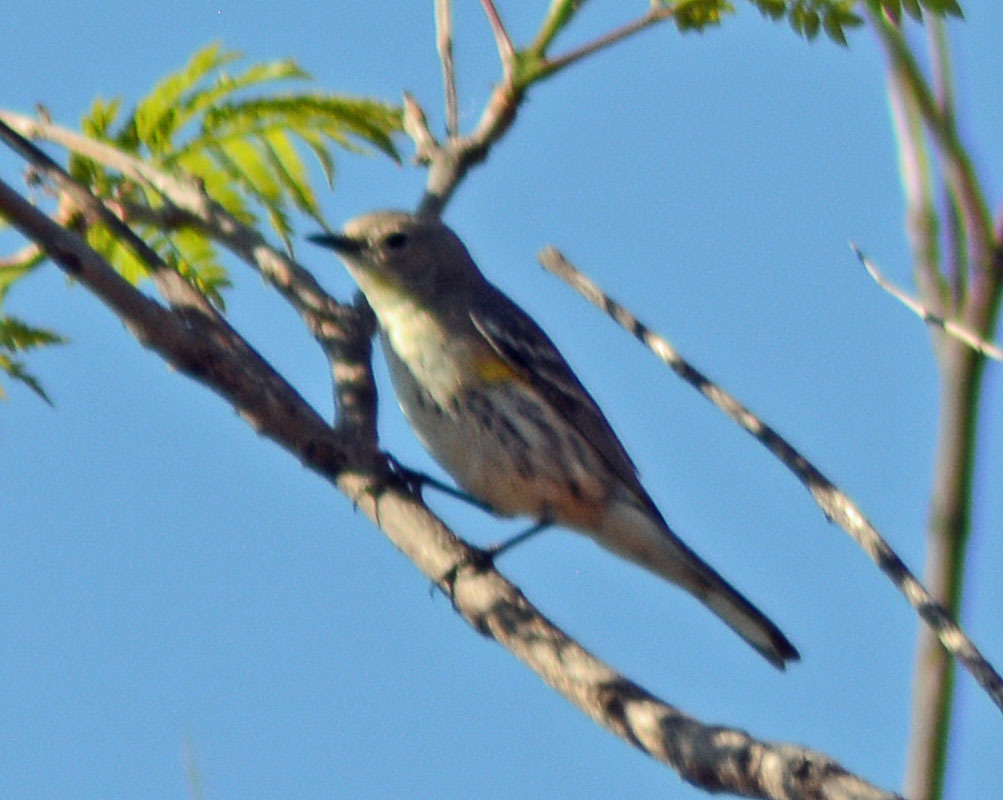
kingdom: Animalia
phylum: Chordata
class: Aves
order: Passeriformes
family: Parulidae
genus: Setophaga
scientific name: Setophaga auduboni
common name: Audubon's warbler
